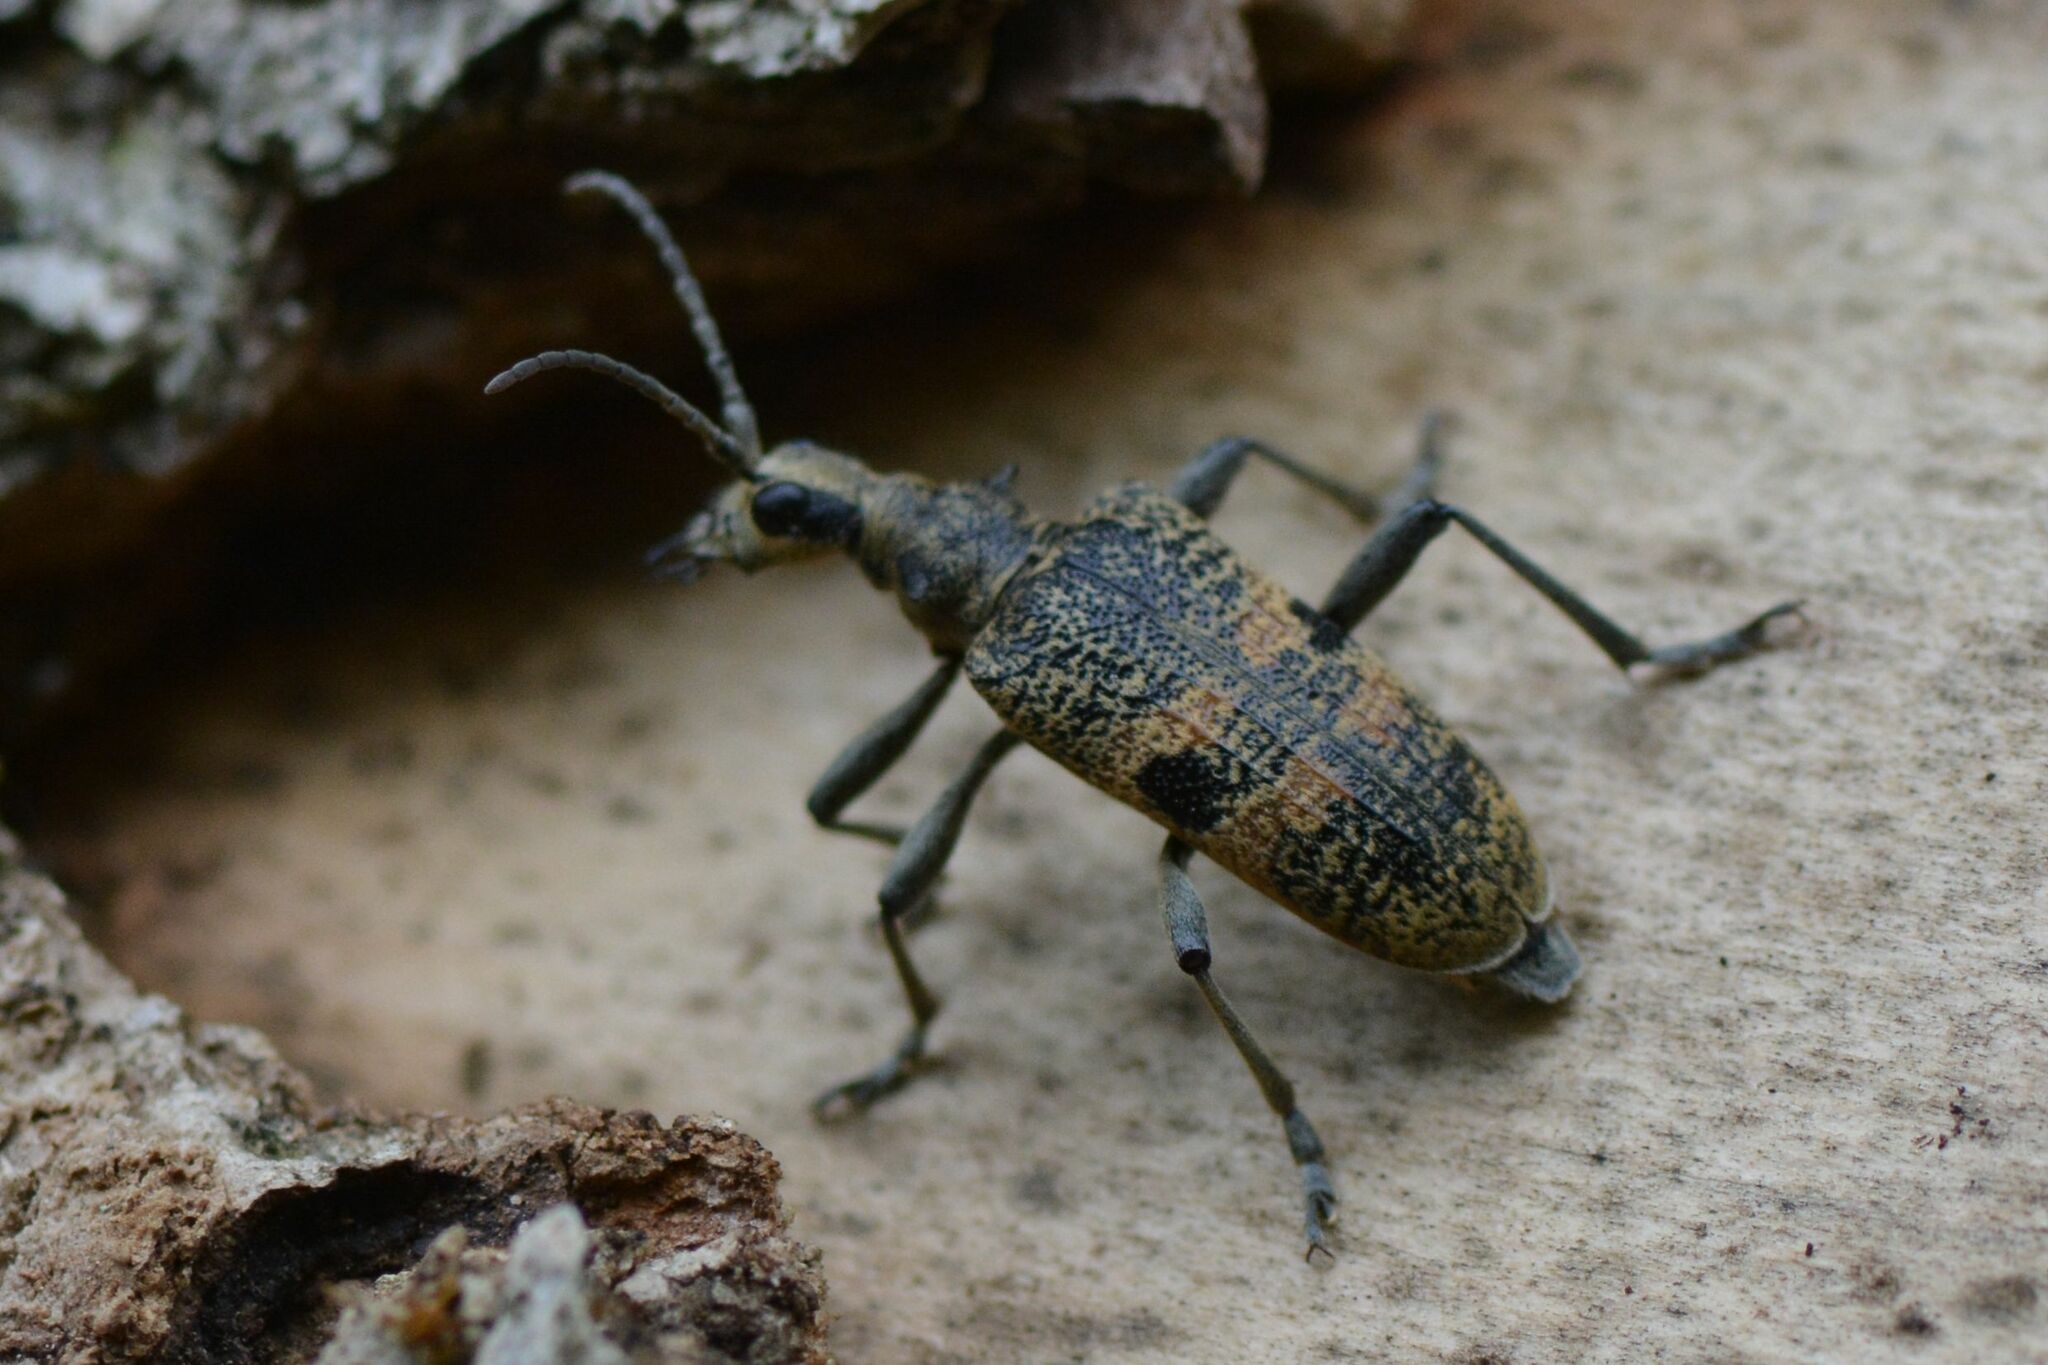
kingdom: Animalia
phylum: Arthropoda
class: Insecta
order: Coleoptera
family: Cerambycidae
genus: Rhagium
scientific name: Rhagium mordax
